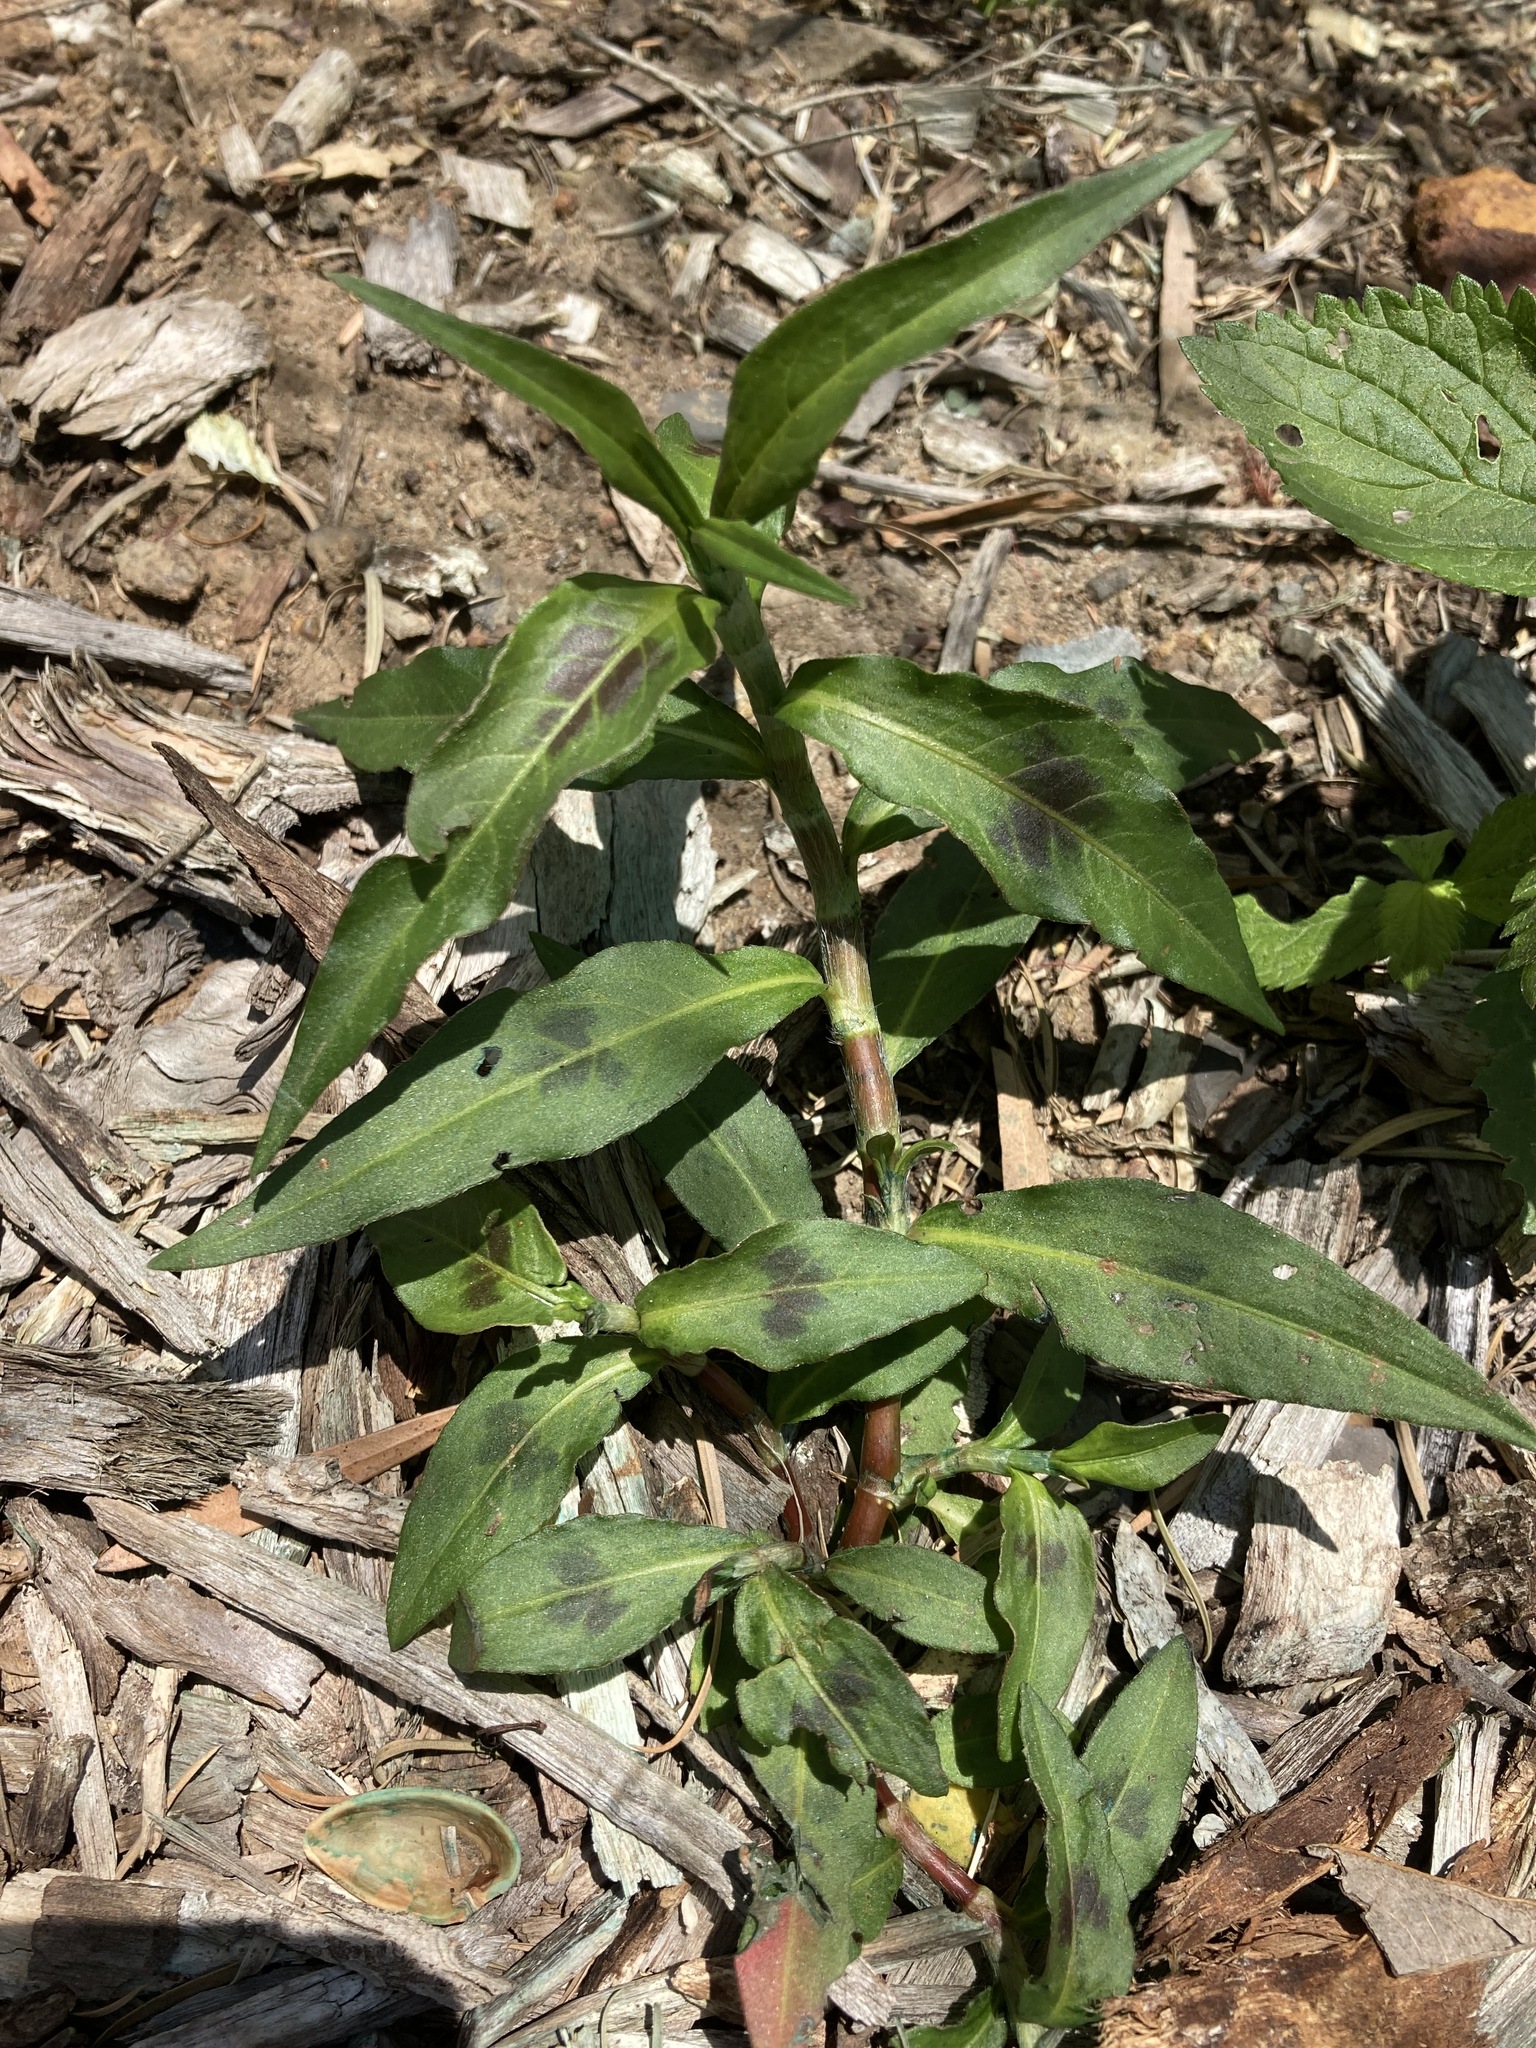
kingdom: Plantae
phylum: Tracheophyta
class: Magnoliopsida
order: Caryophyllales
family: Polygonaceae
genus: Persicaria
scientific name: Persicaria decipiens
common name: Willow-weed
